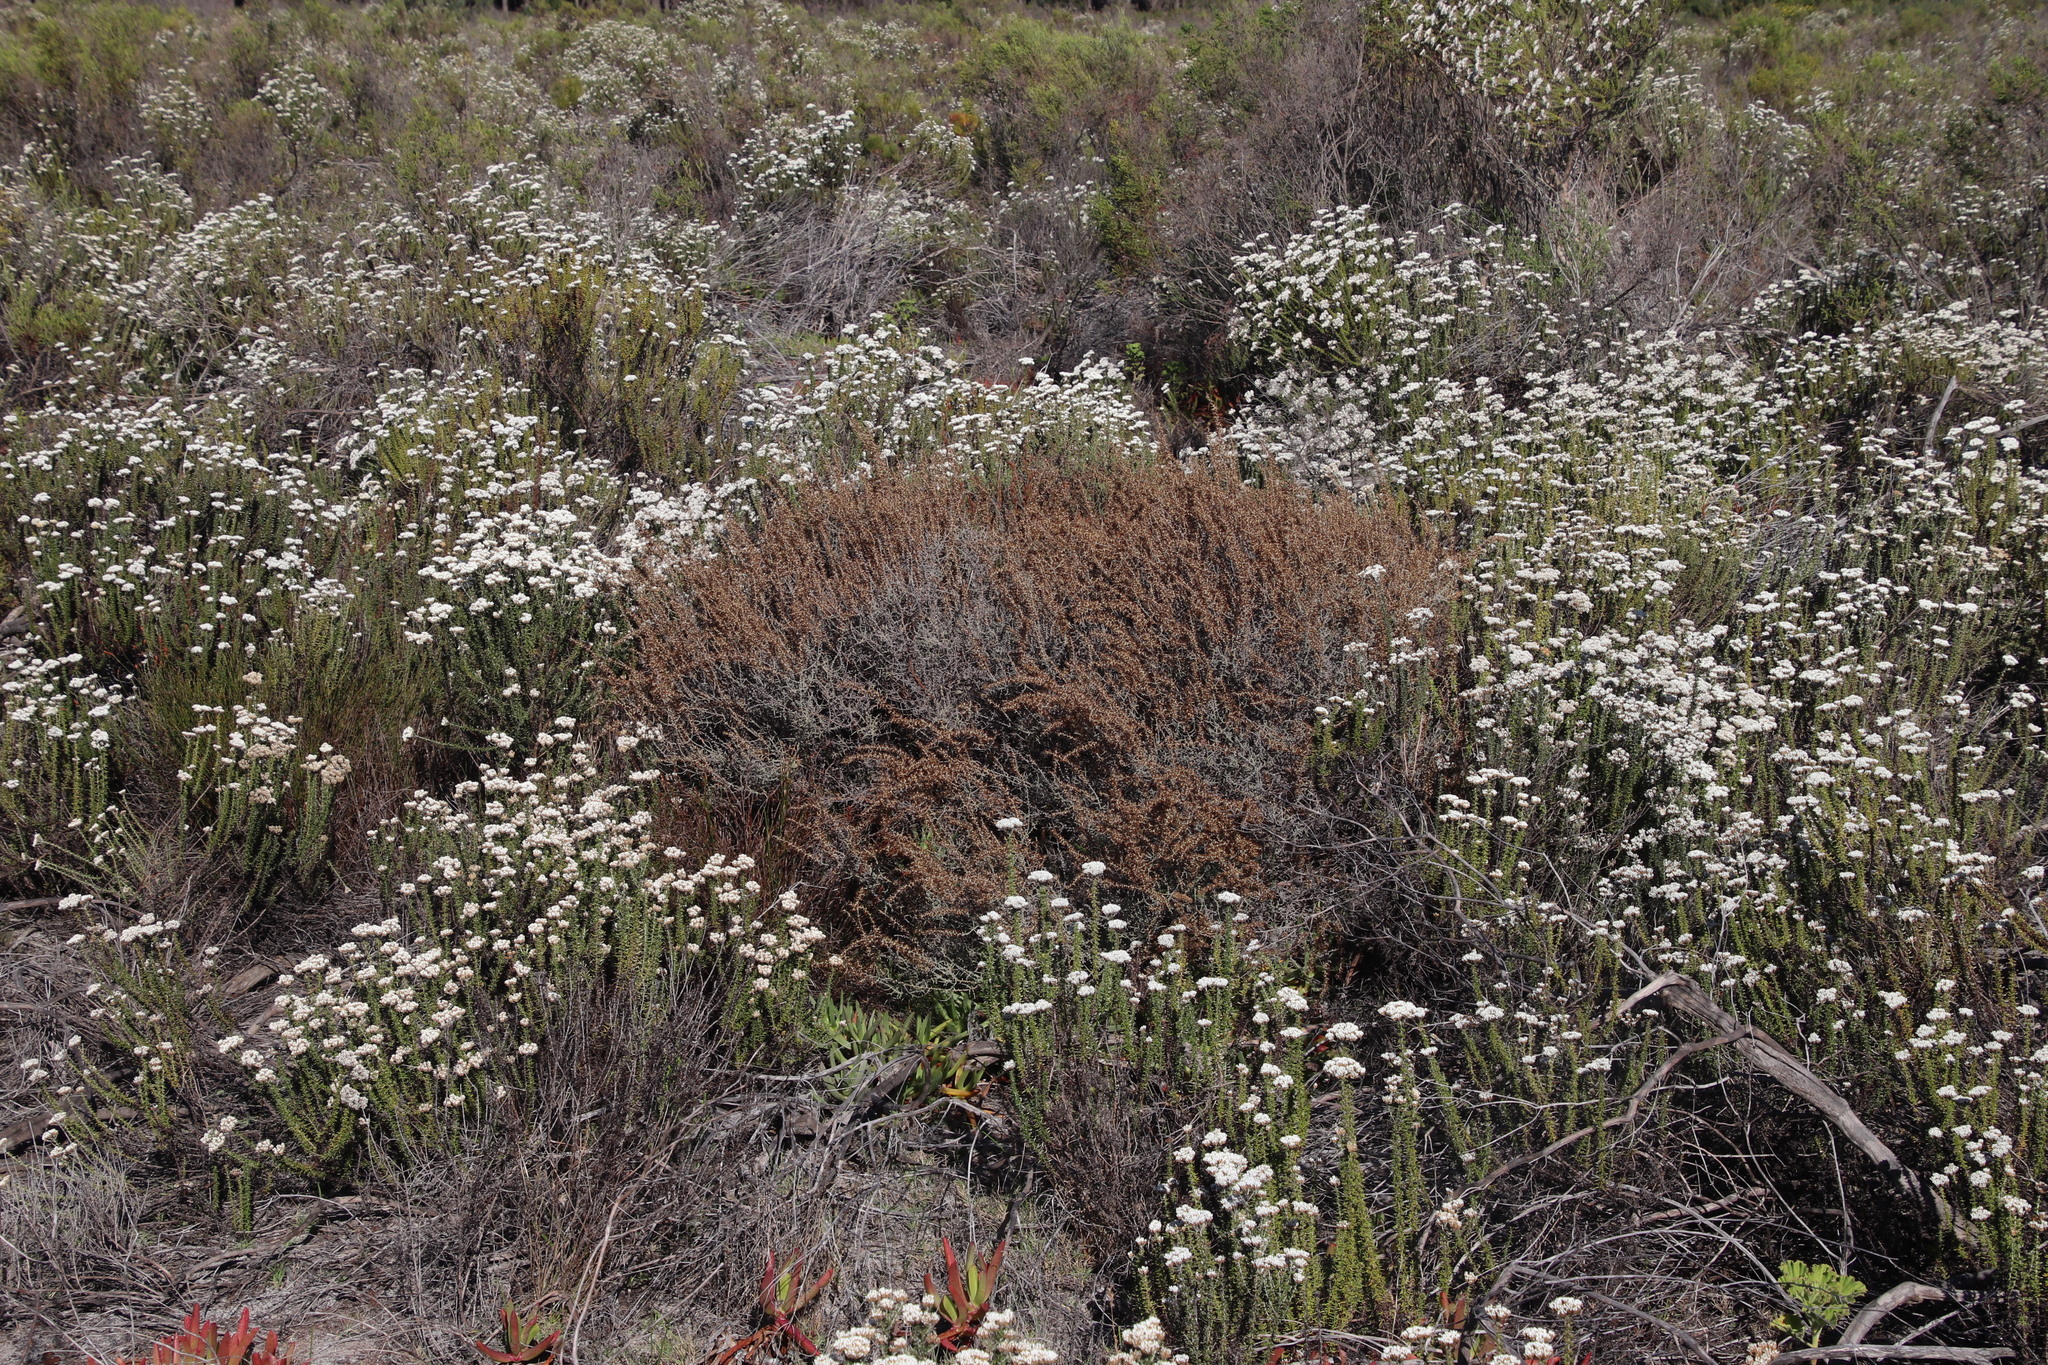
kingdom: Plantae
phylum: Tracheophyta
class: Magnoliopsida
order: Asterales
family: Asteraceae
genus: Seriphium
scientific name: Seriphium plumosum
